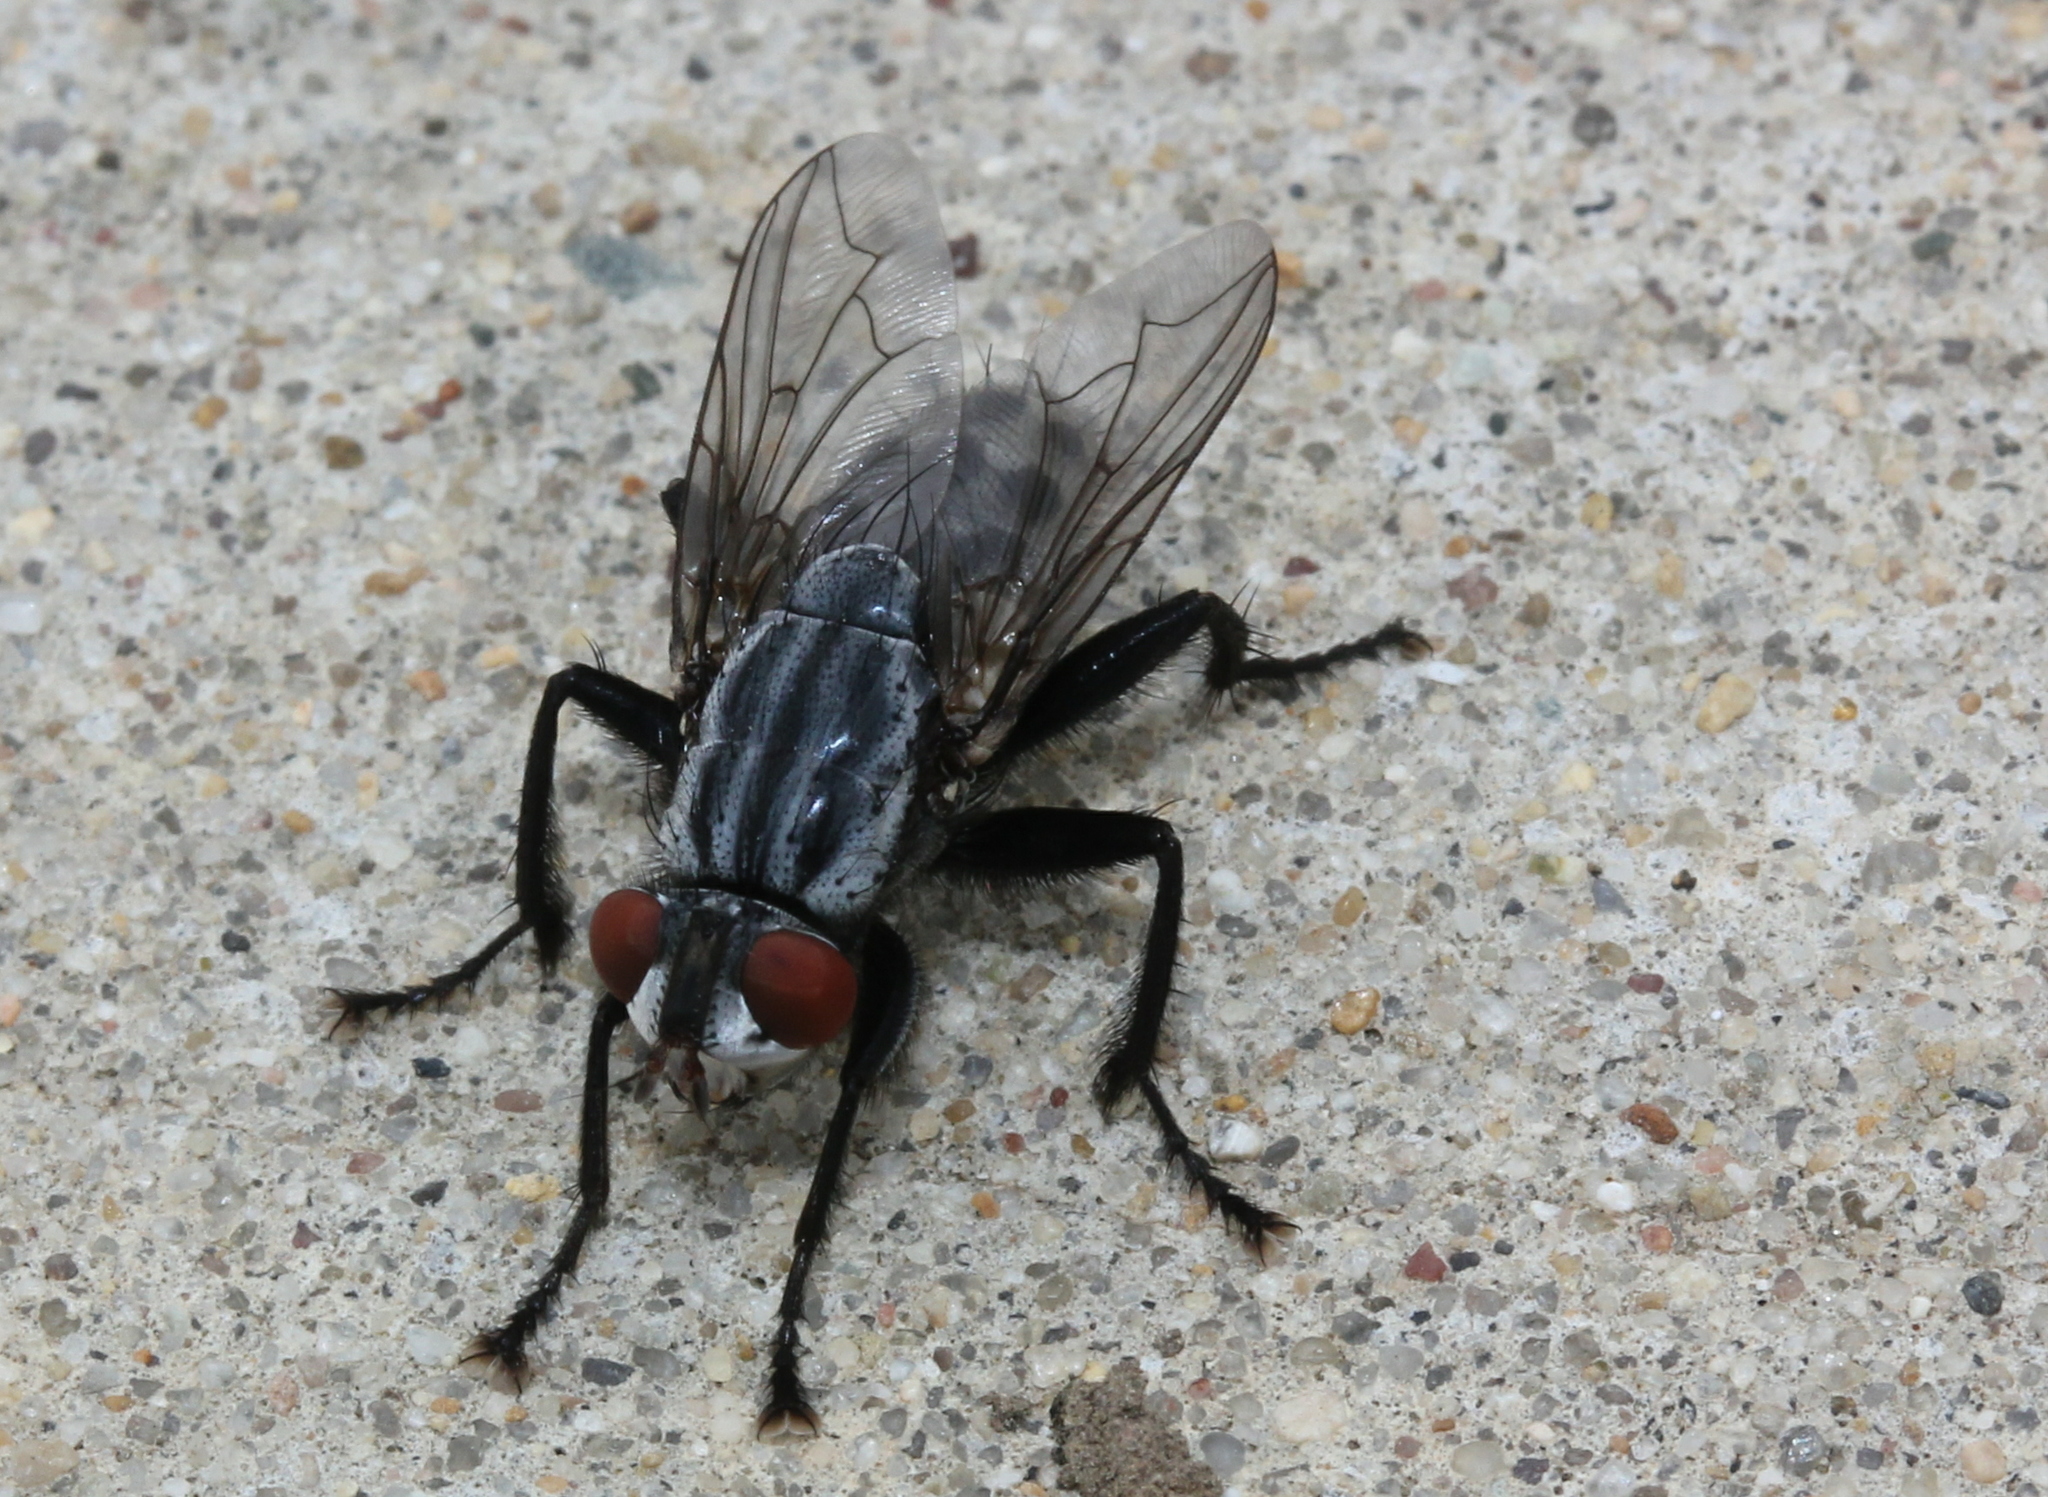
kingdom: Animalia
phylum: Arthropoda
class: Insecta
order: Diptera
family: Sarcophagidae
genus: Wohlfahrtia
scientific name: Wohlfahrtia vigil
